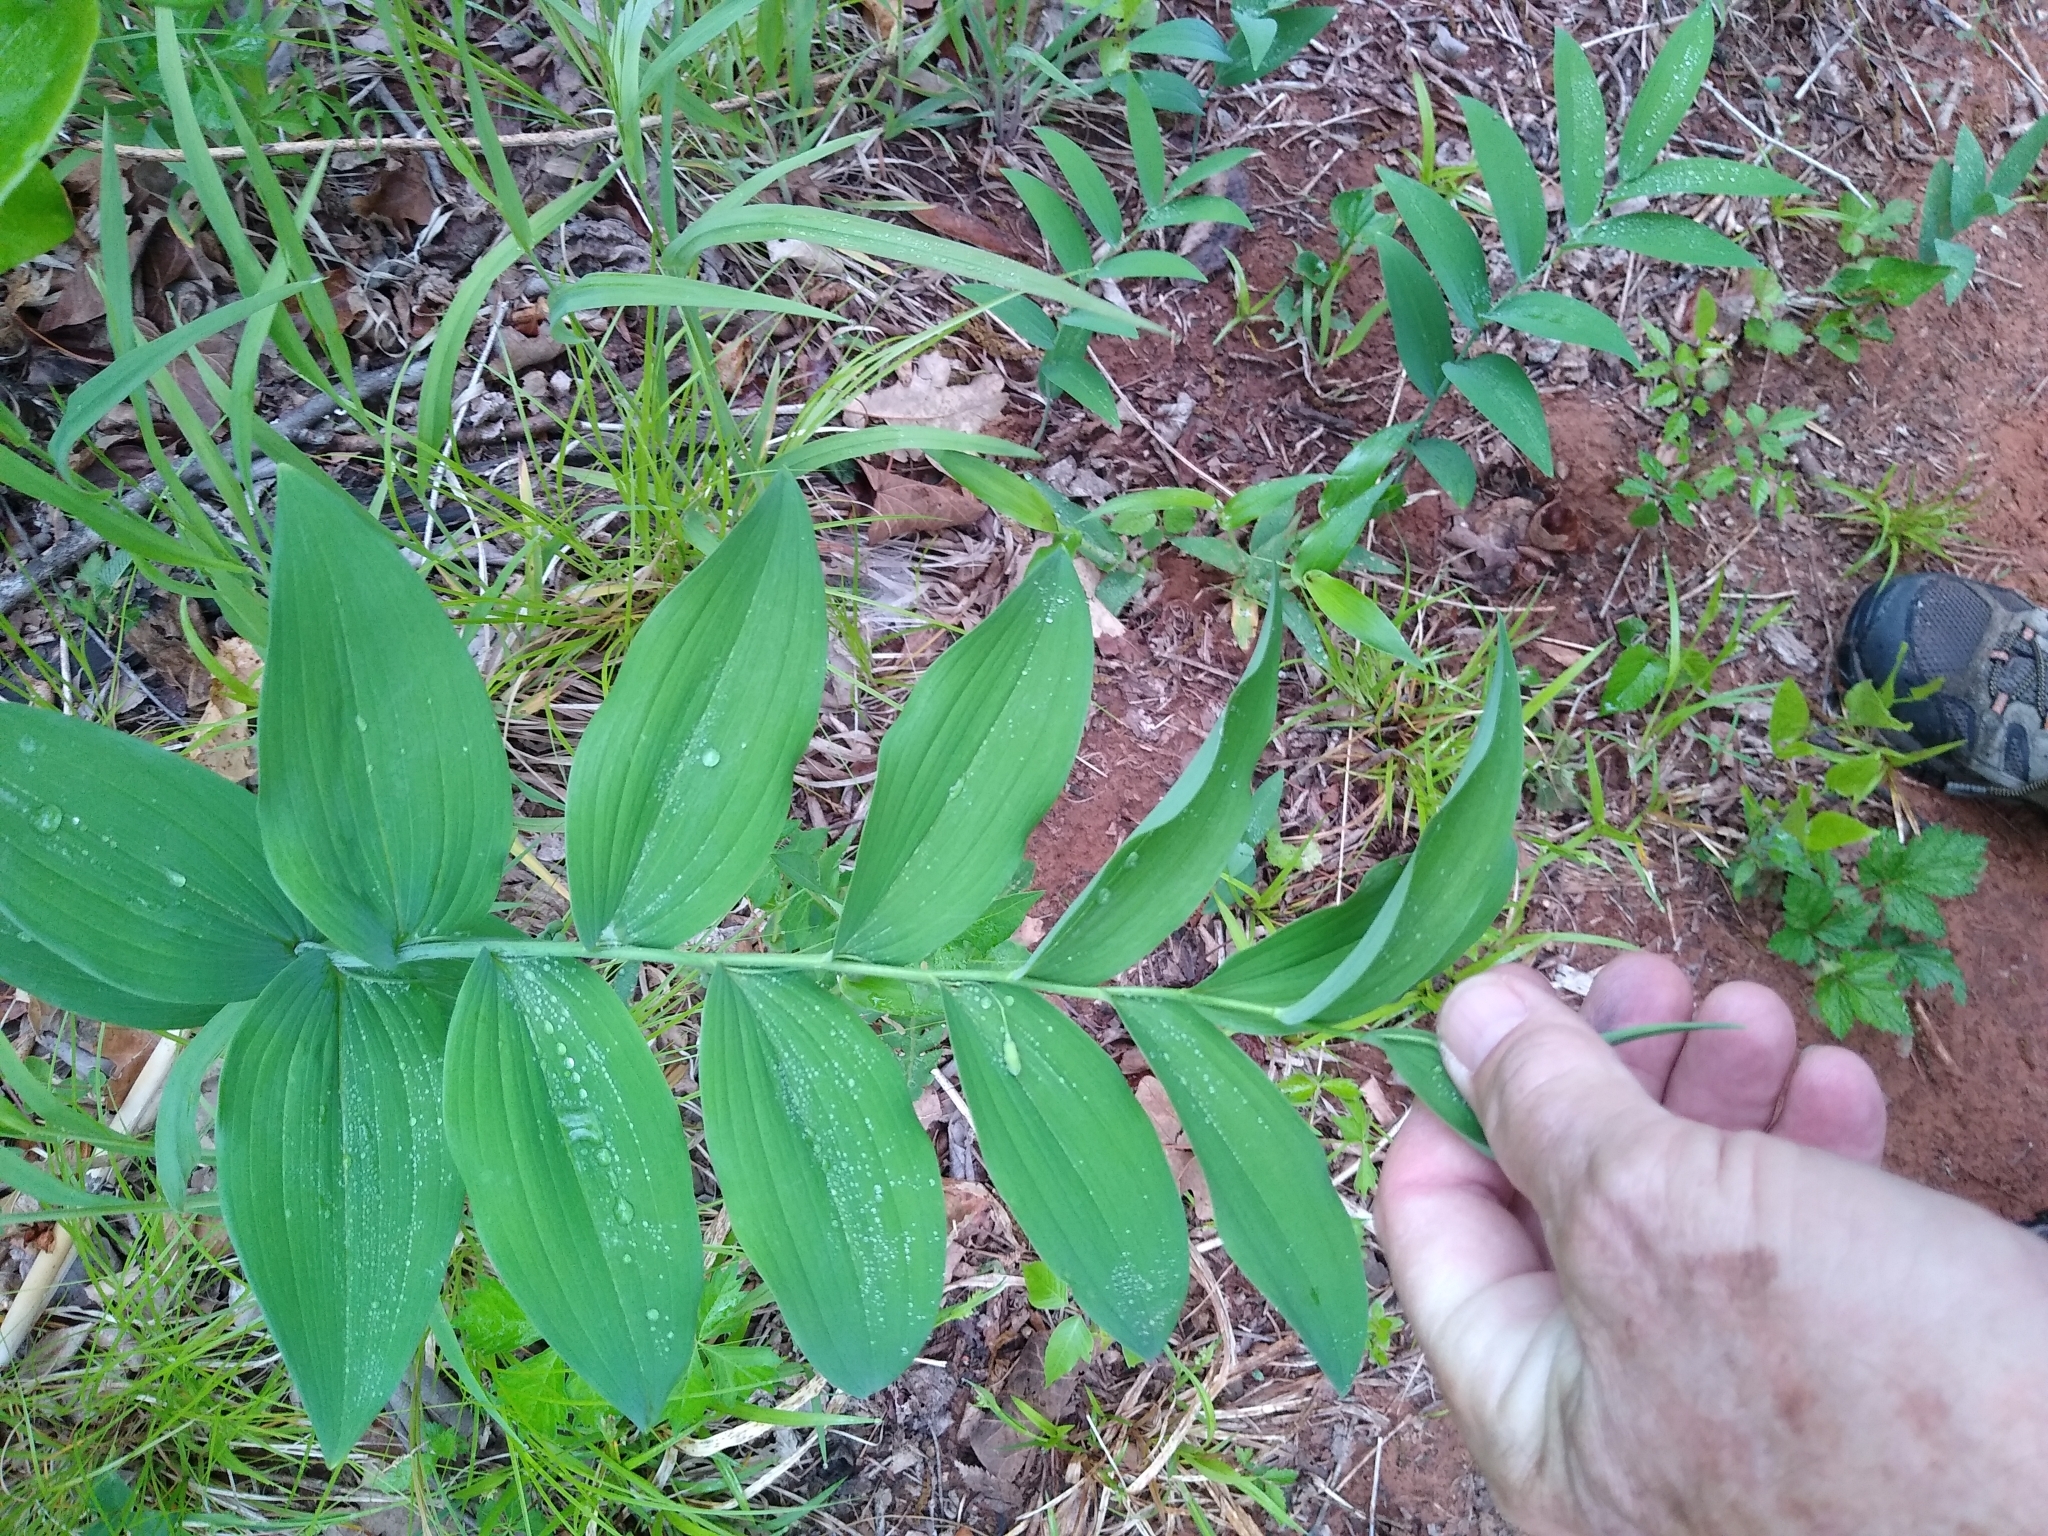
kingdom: Plantae
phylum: Tracheophyta
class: Liliopsida
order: Asparagales
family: Asparagaceae
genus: Polygonatum
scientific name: Polygonatum biflorum
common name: American solomon's-seal
